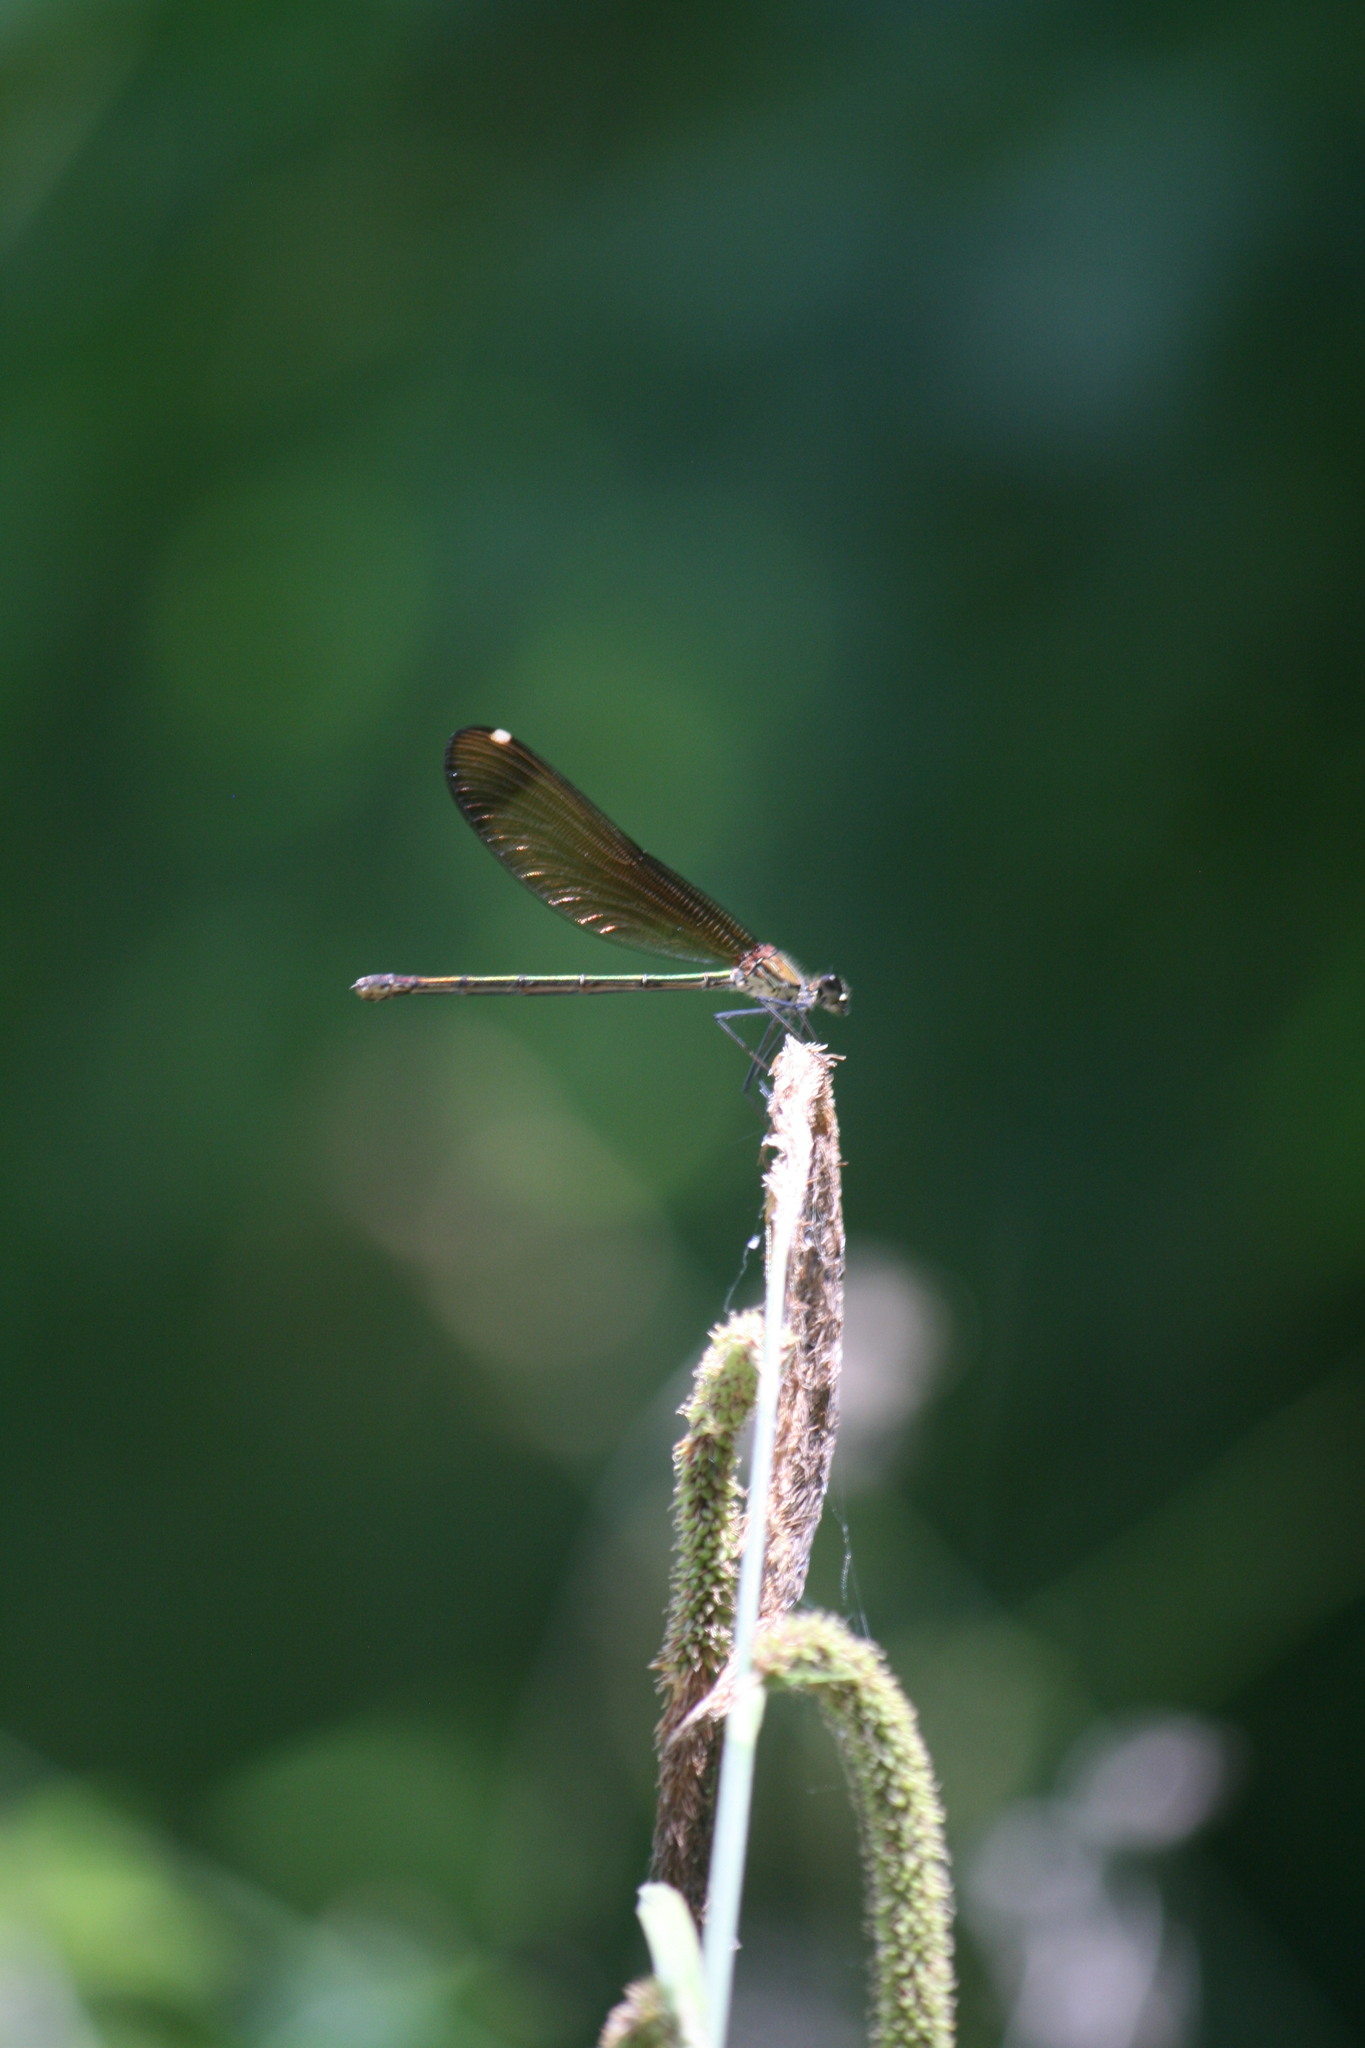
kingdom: Animalia
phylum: Arthropoda
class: Insecta
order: Odonata
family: Calopterygidae
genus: Calopteryx
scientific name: Calopteryx haemorrhoidalis
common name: Copper demoiselle
